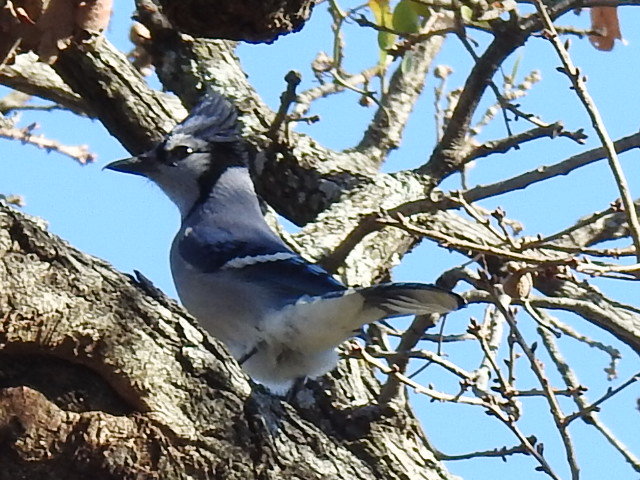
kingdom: Animalia
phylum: Chordata
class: Aves
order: Passeriformes
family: Corvidae
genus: Cyanocitta
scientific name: Cyanocitta cristata
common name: Blue jay
